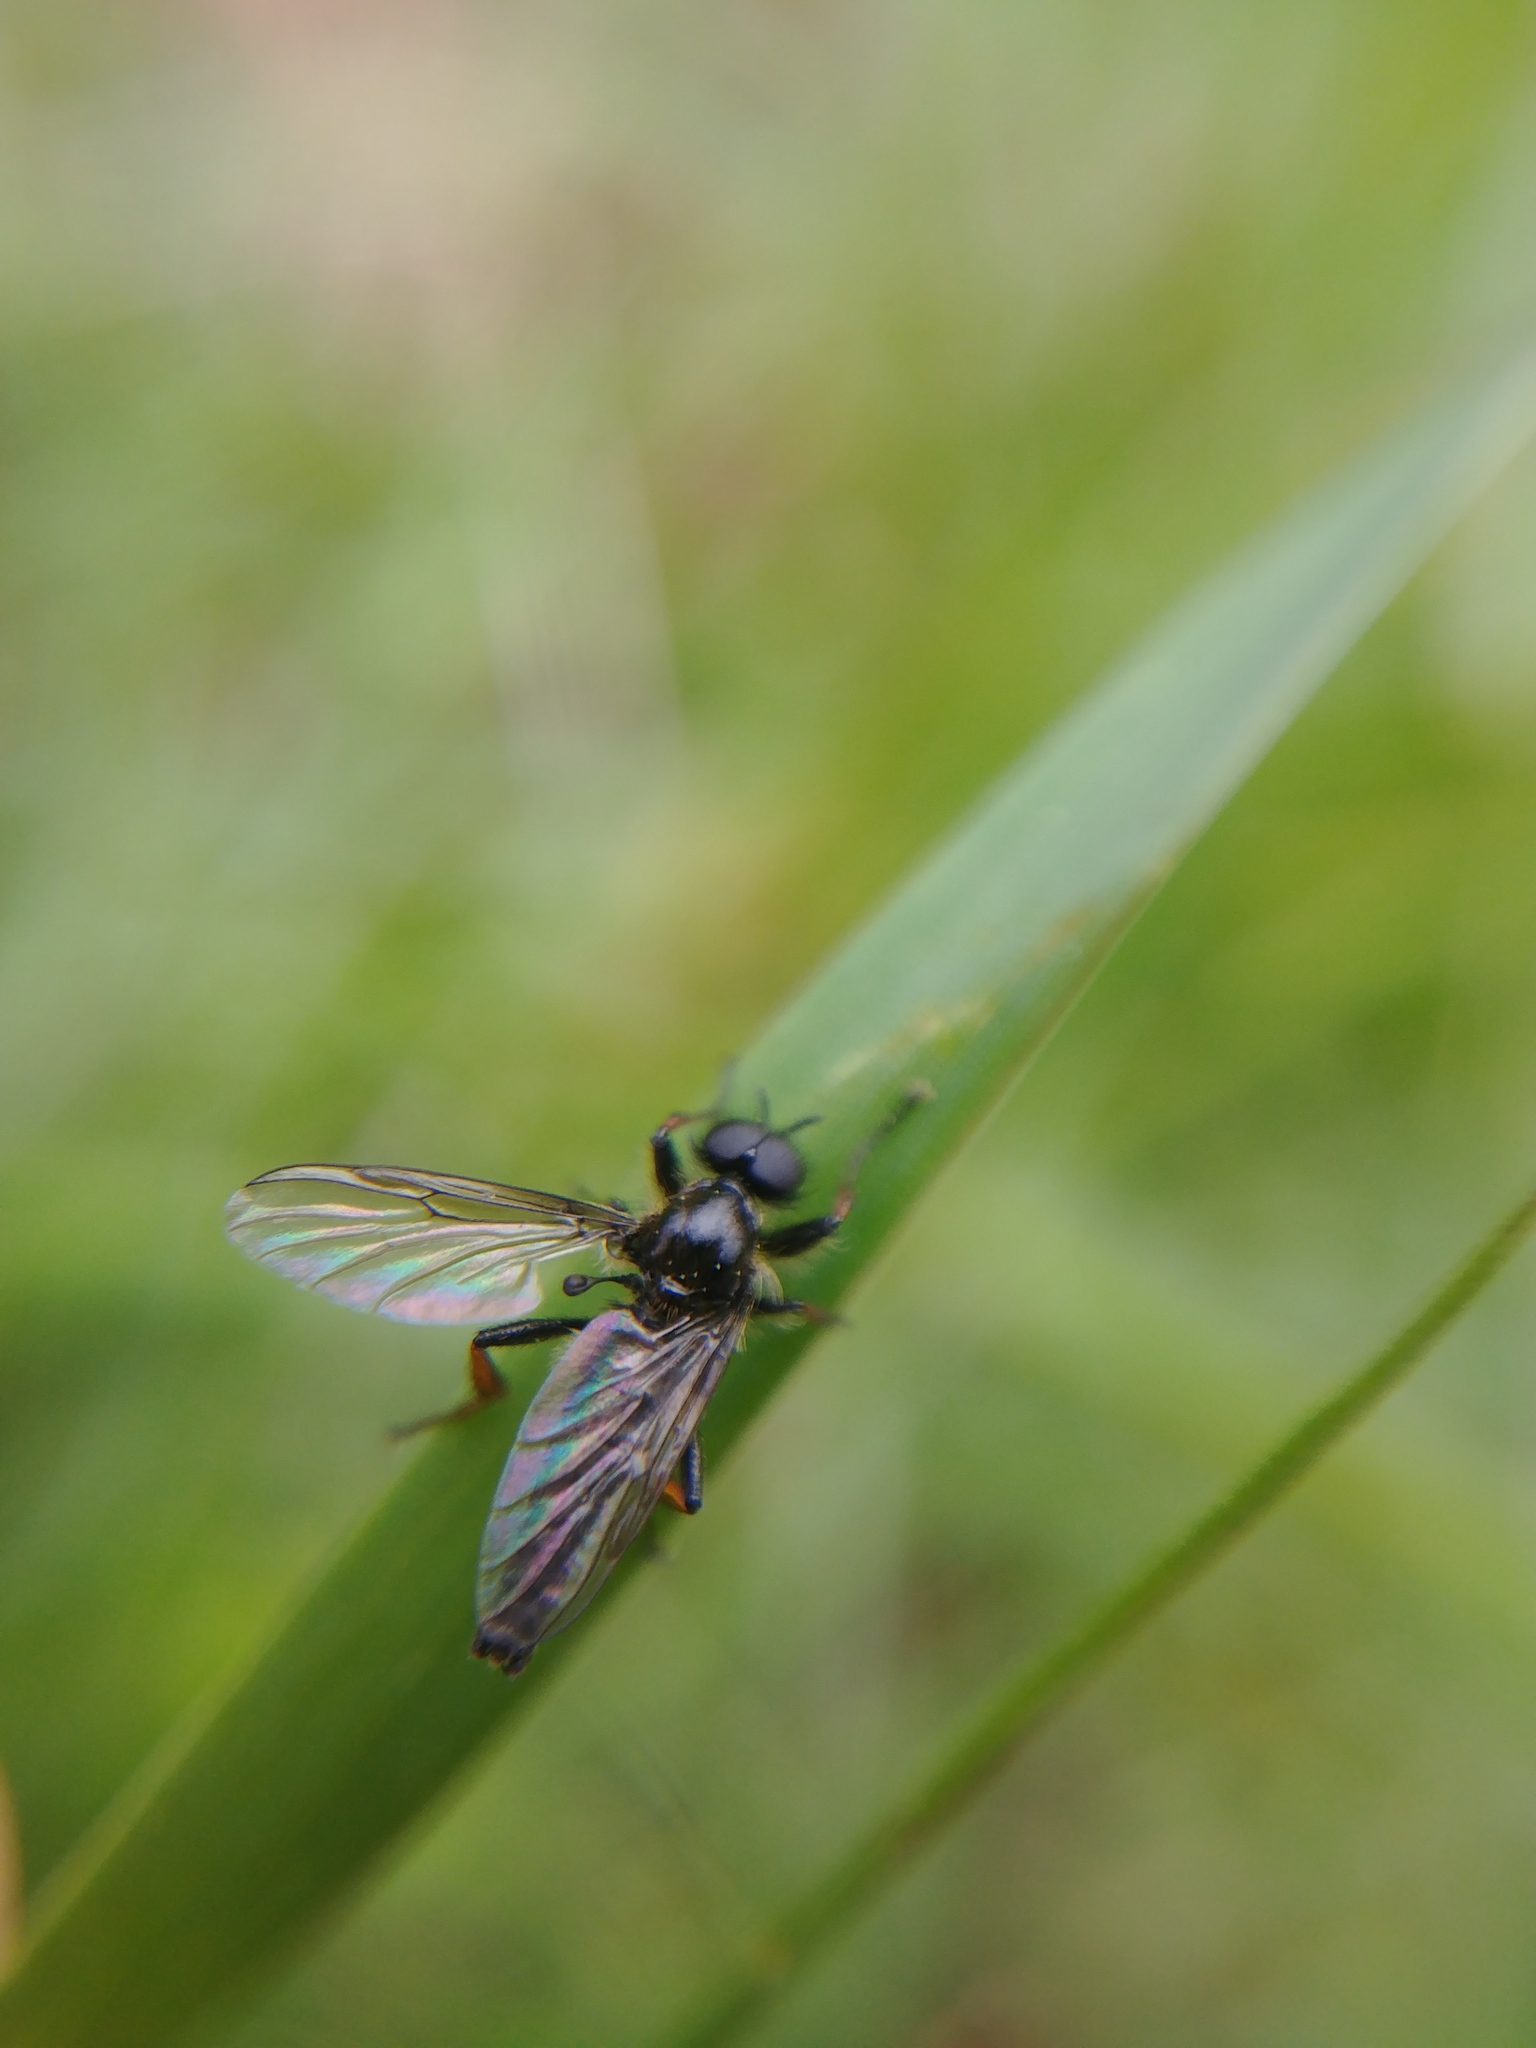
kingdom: Animalia
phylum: Arthropoda
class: Insecta
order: Diptera
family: Bibionidae
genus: Bibio
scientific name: Bibio lanigerus
